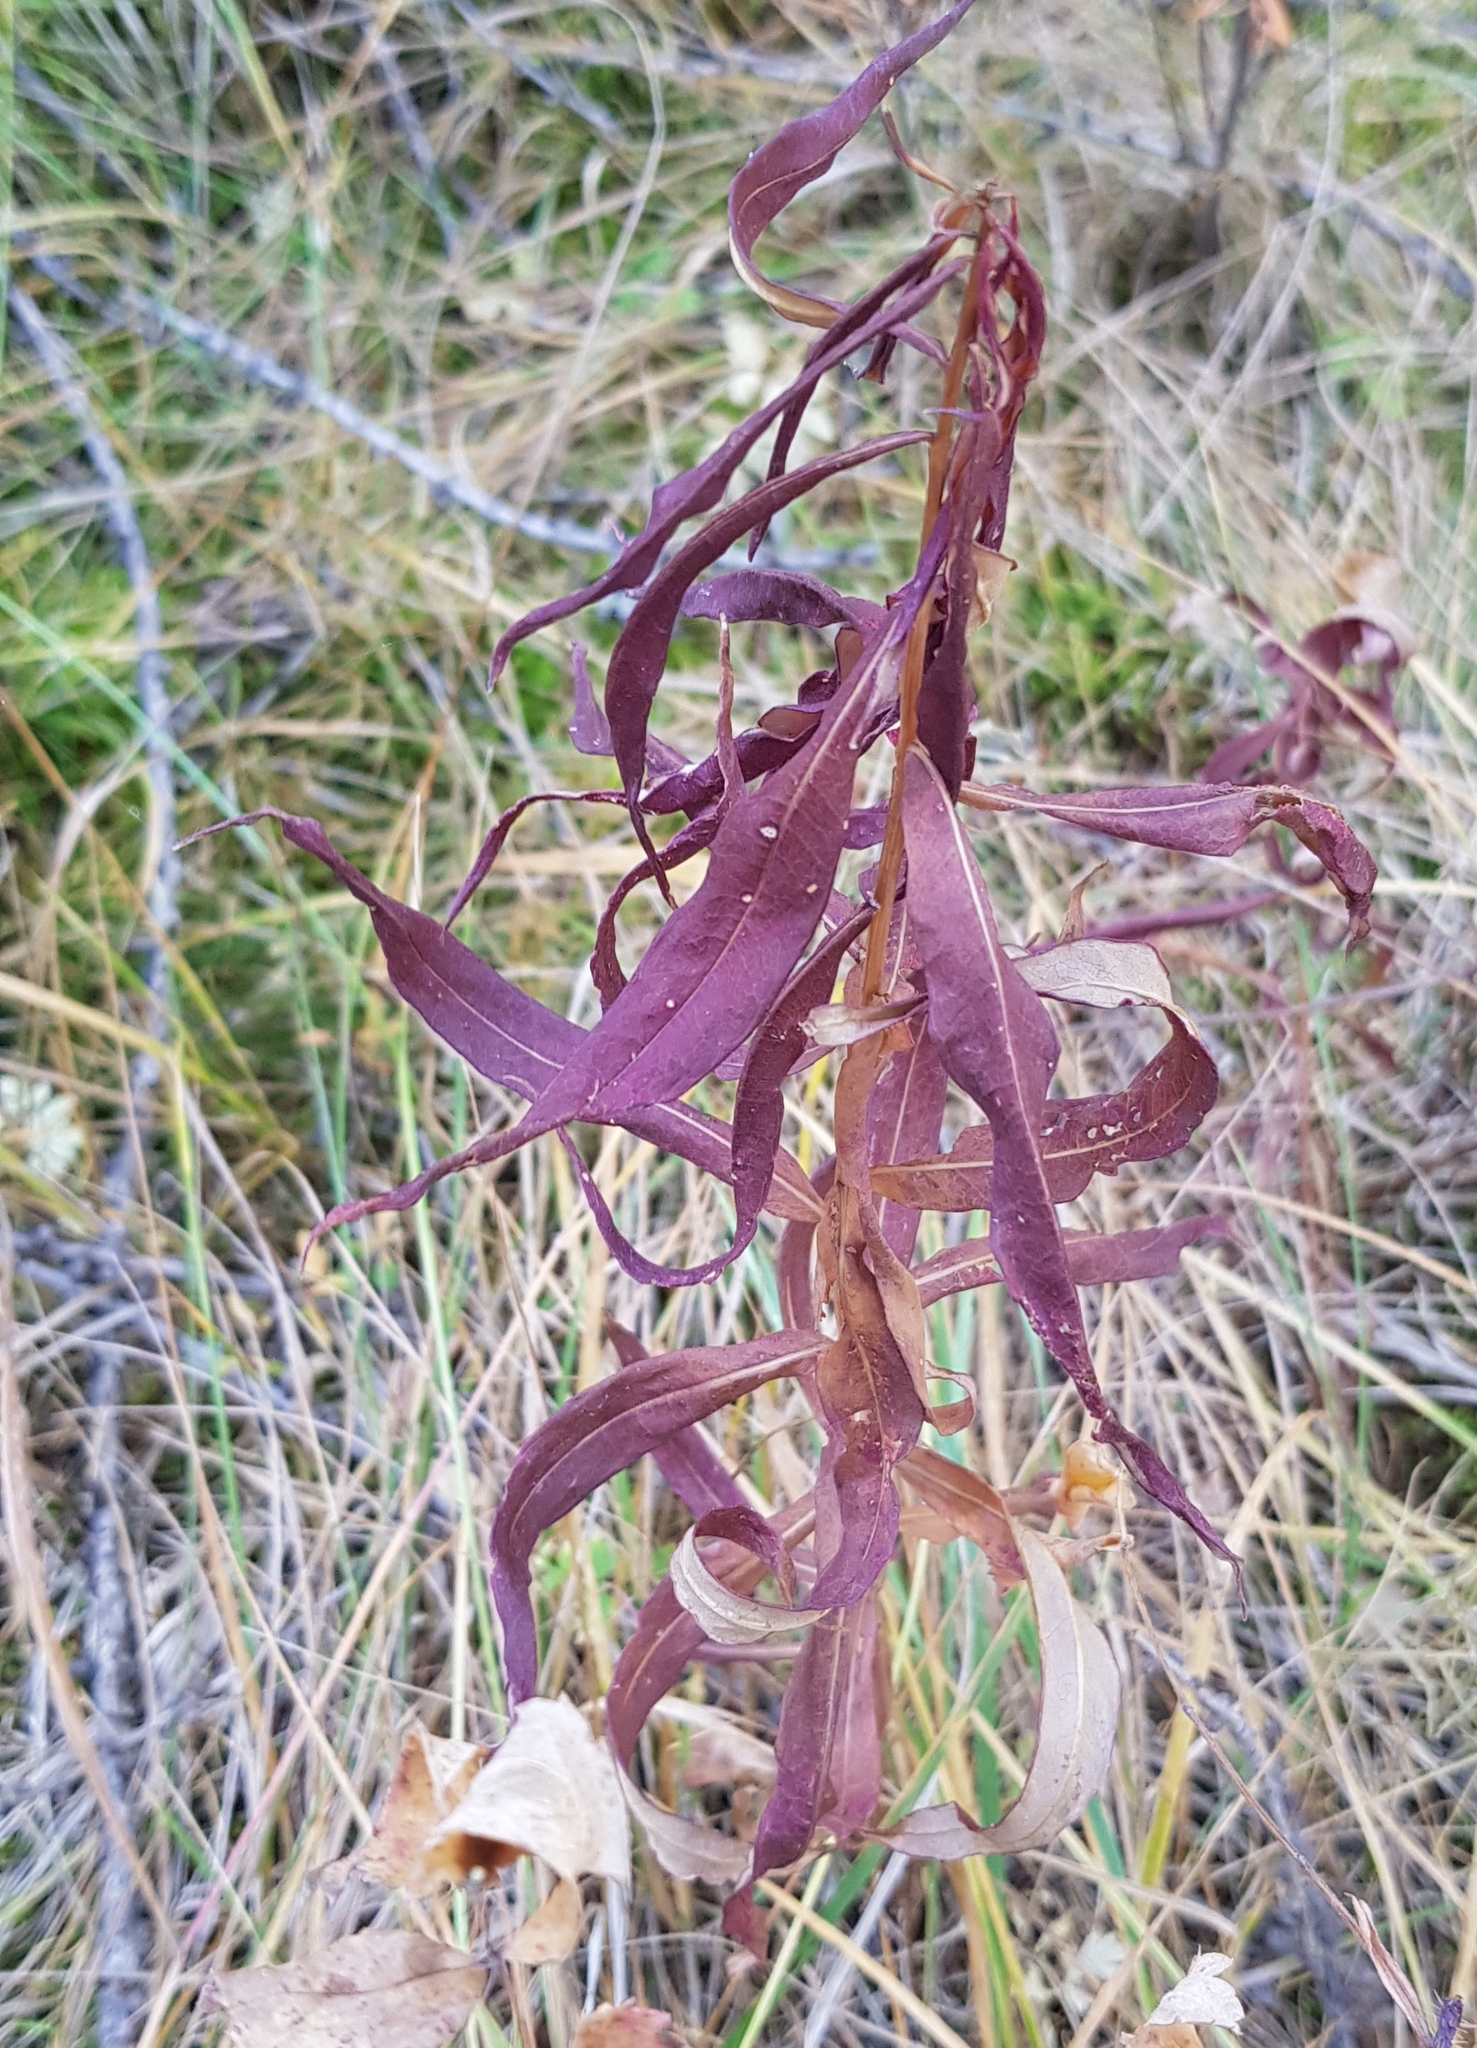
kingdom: Plantae
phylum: Tracheophyta
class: Magnoliopsida
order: Myrtales
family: Onagraceae
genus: Chamaenerion
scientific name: Chamaenerion angustifolium
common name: Fireweed
